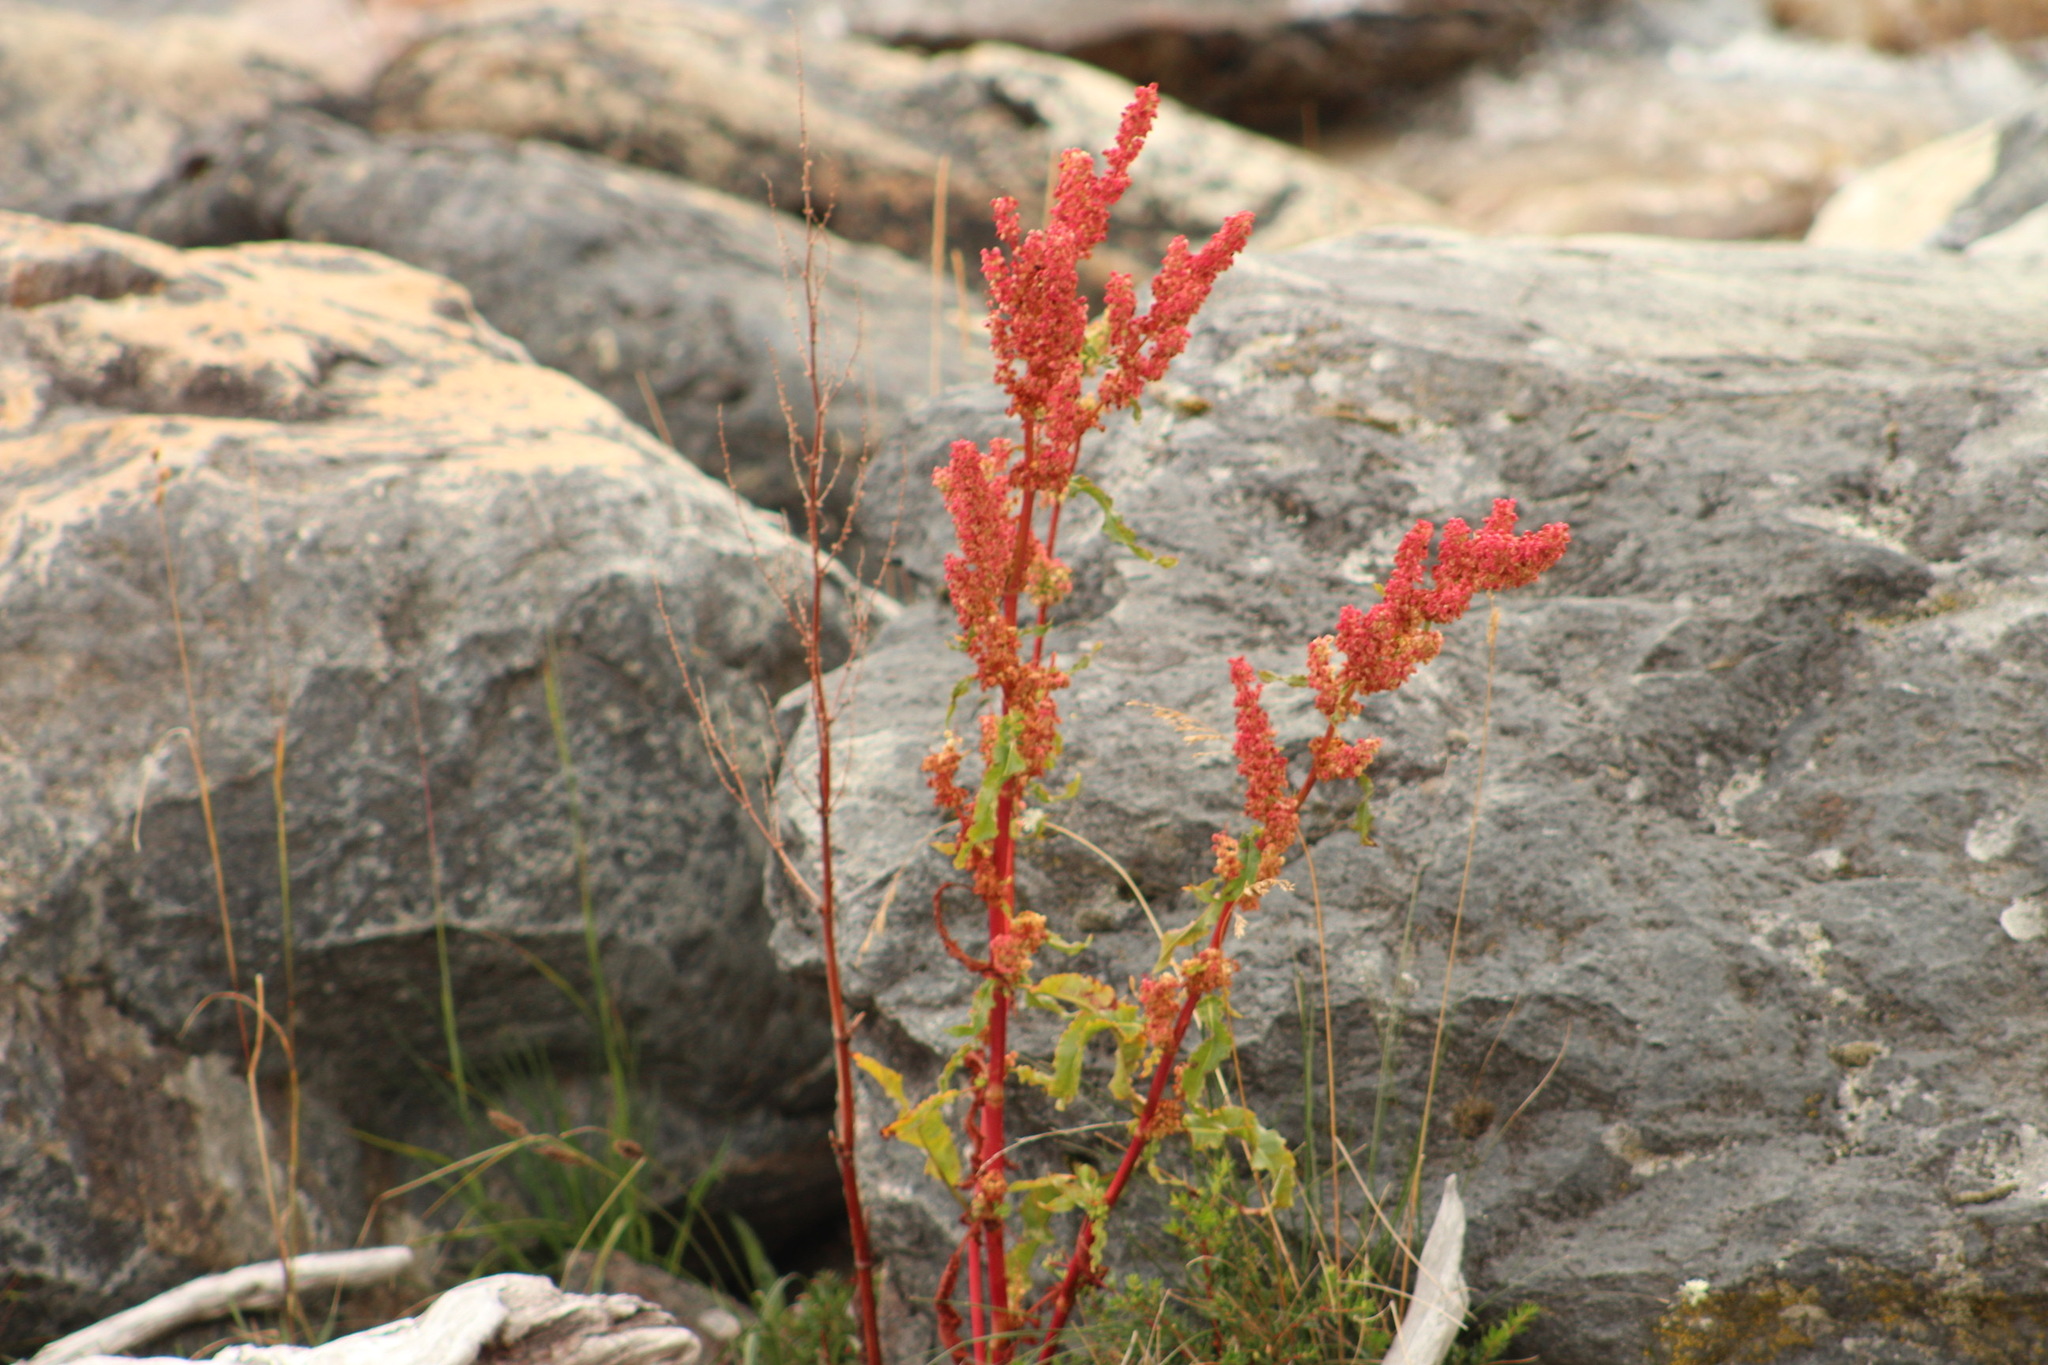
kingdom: Plantae
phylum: Tracheophyta
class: Magnoliopsida
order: Caryophyllales
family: Polygonaceae
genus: Rumex
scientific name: Rumex crispus
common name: Curled dock
